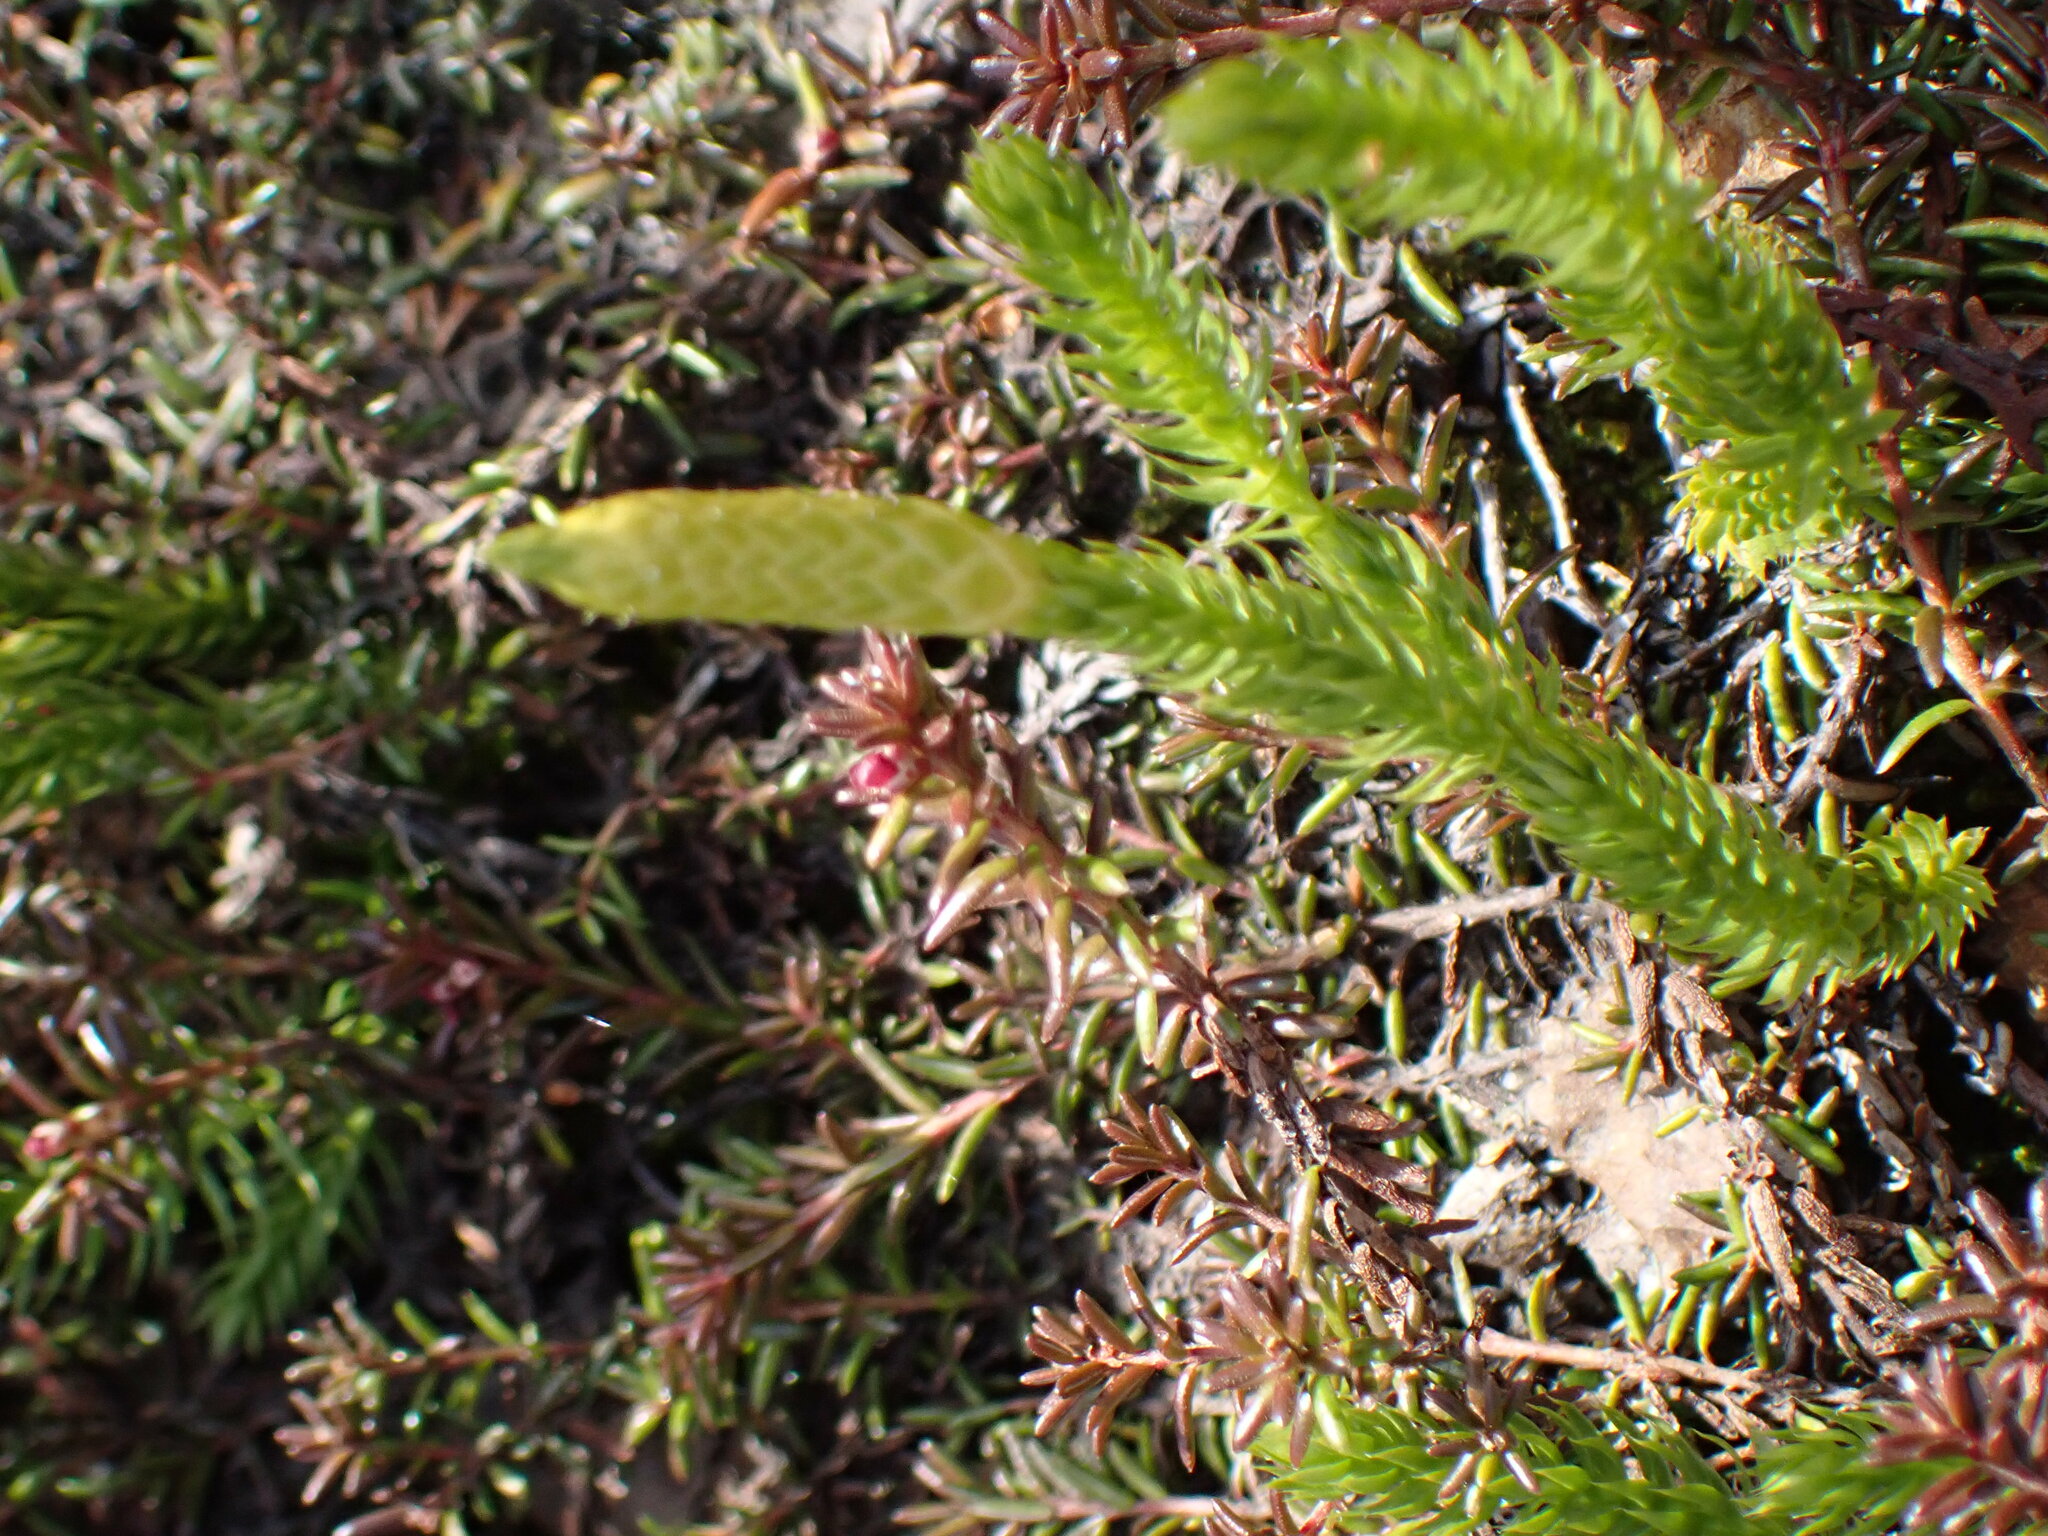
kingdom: Plantae
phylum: Tracheophyta
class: Lycopodiopsida
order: Lycopodiales
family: Lycopodiaceae
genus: Spinulum
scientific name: Spinulum annotinum
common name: Interrupted club-moss
